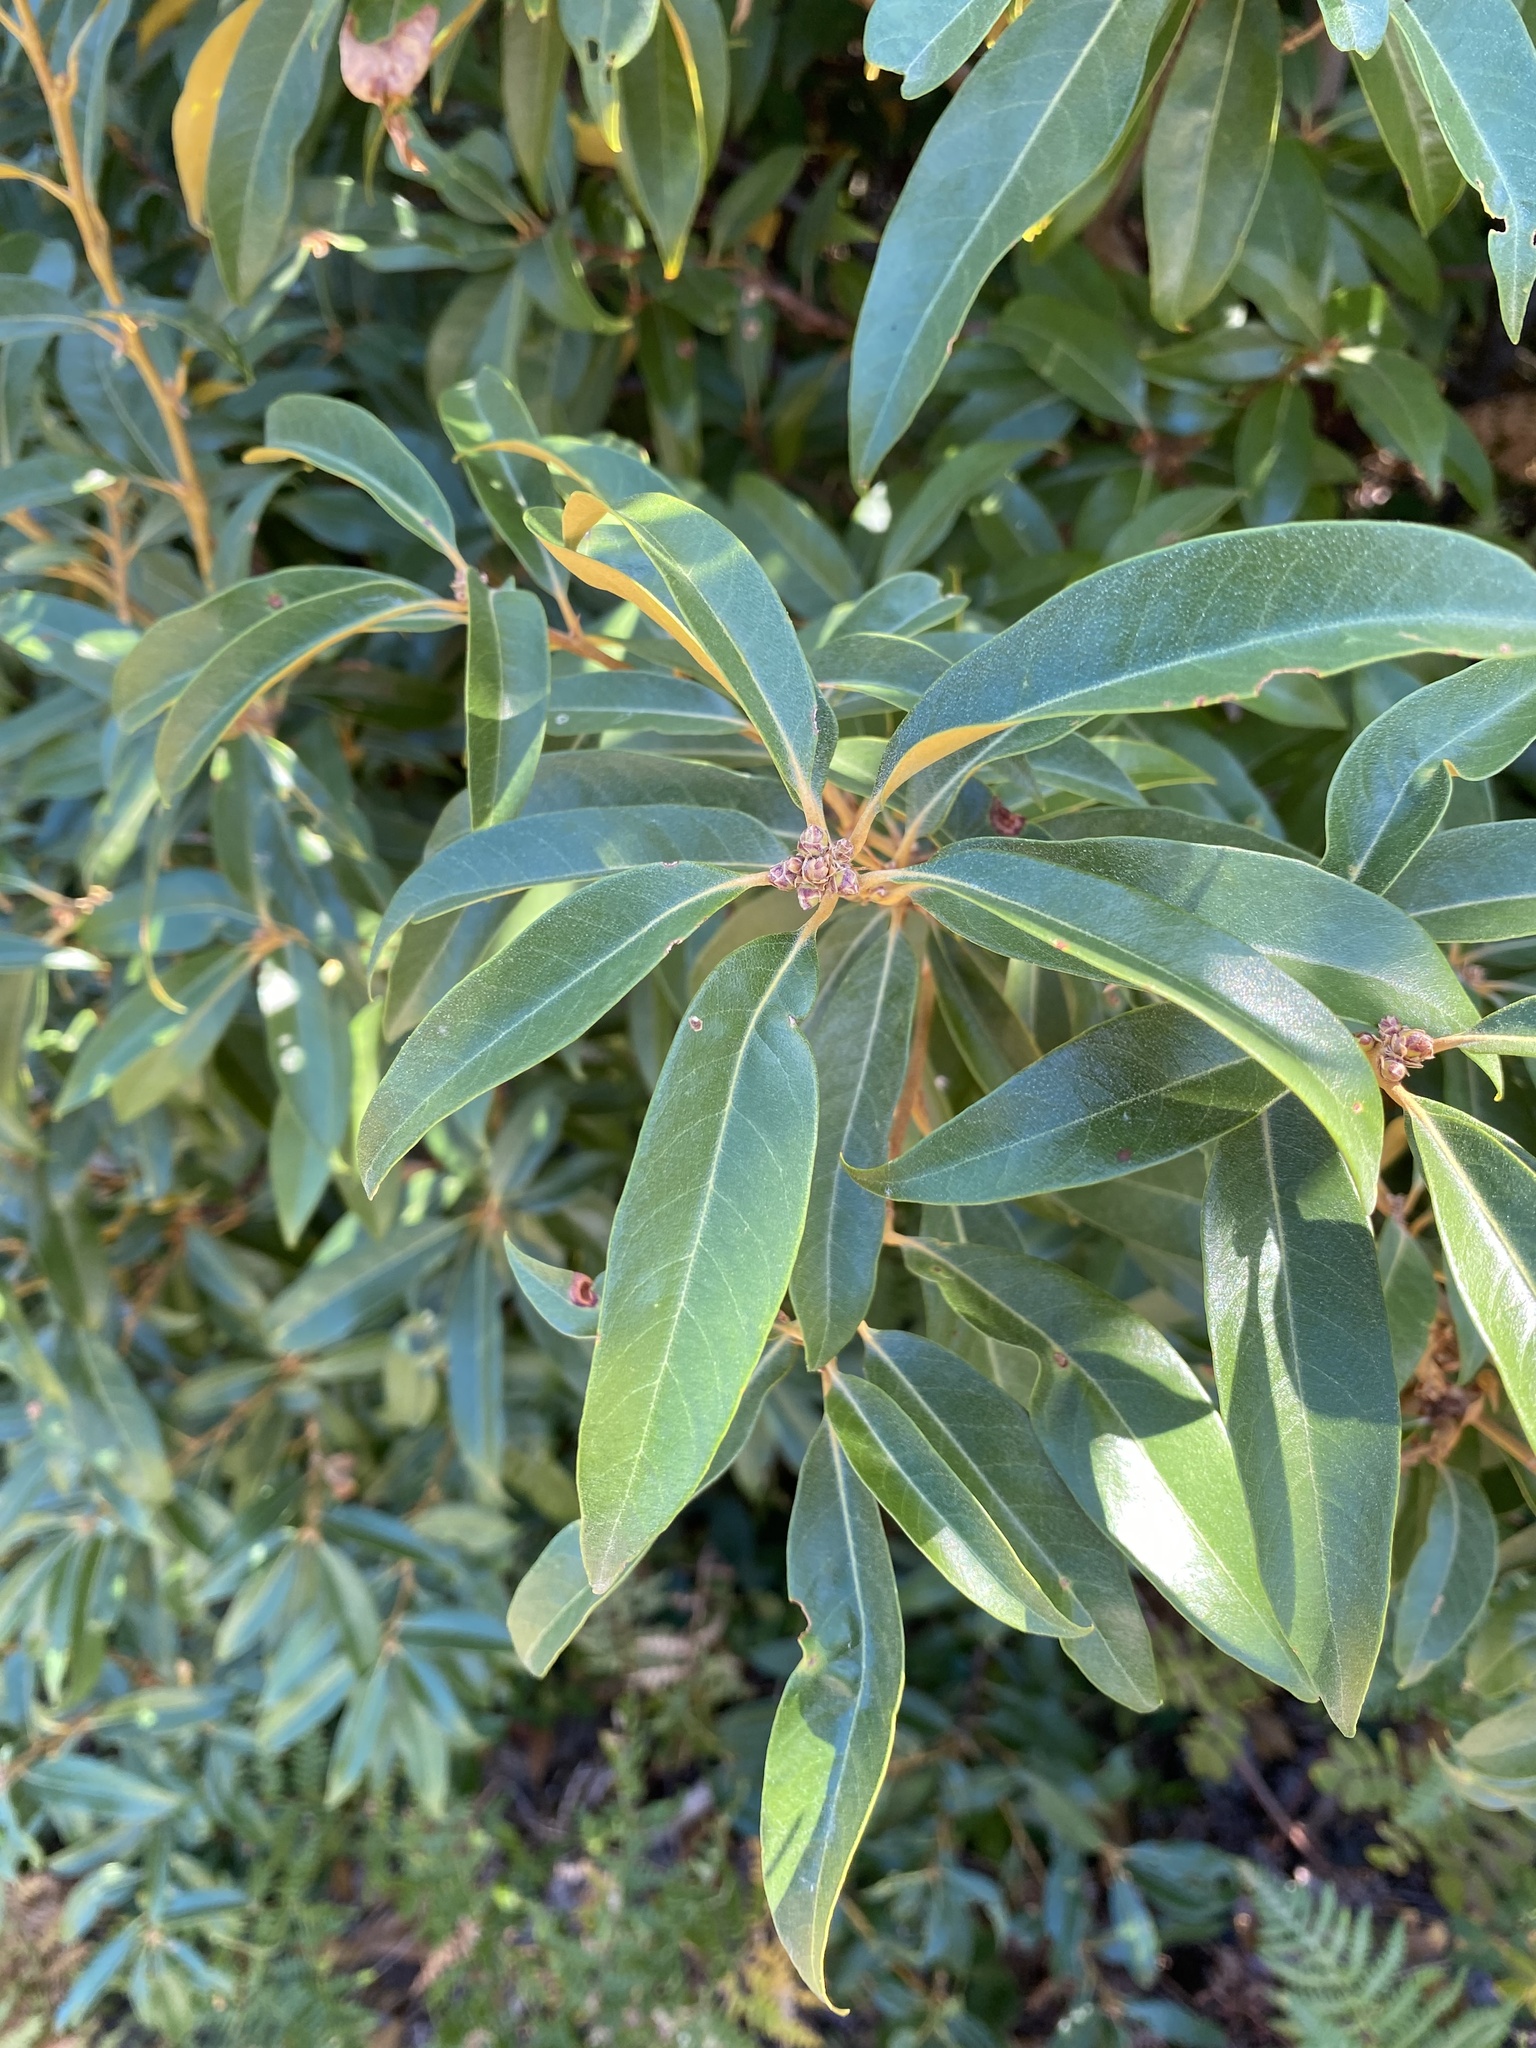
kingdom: Plantae
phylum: Tracheophyta
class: Magnoliopsida
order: Fagales
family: Fagaceae
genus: Chrysolepis
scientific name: Chrysolepis chrysophylla
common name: Giant chinquapin
